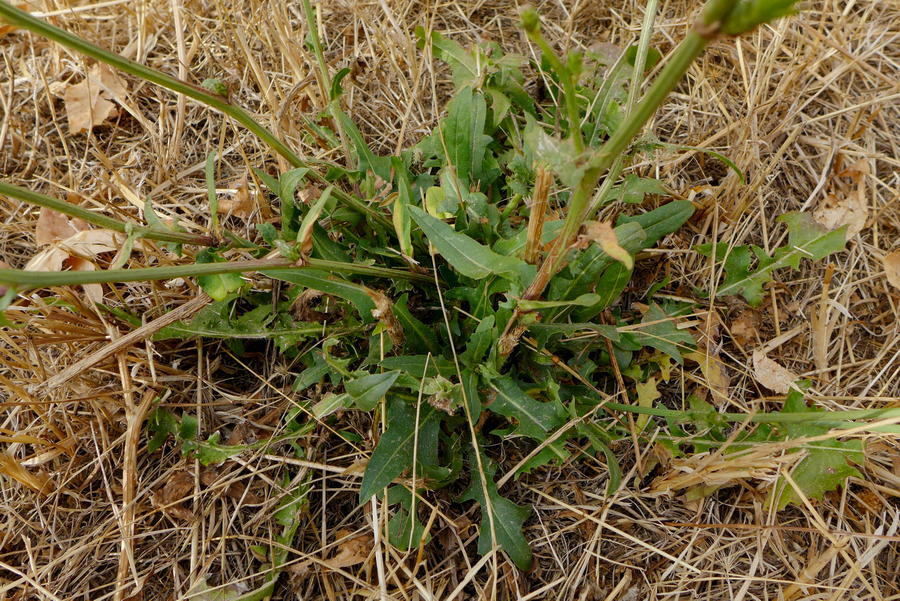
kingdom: Plantae
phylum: Tracheophyta
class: Magnoliopsida
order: Asterales
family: Asteraceae
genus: Cichorium
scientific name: Cichorium intybus
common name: Chicory
